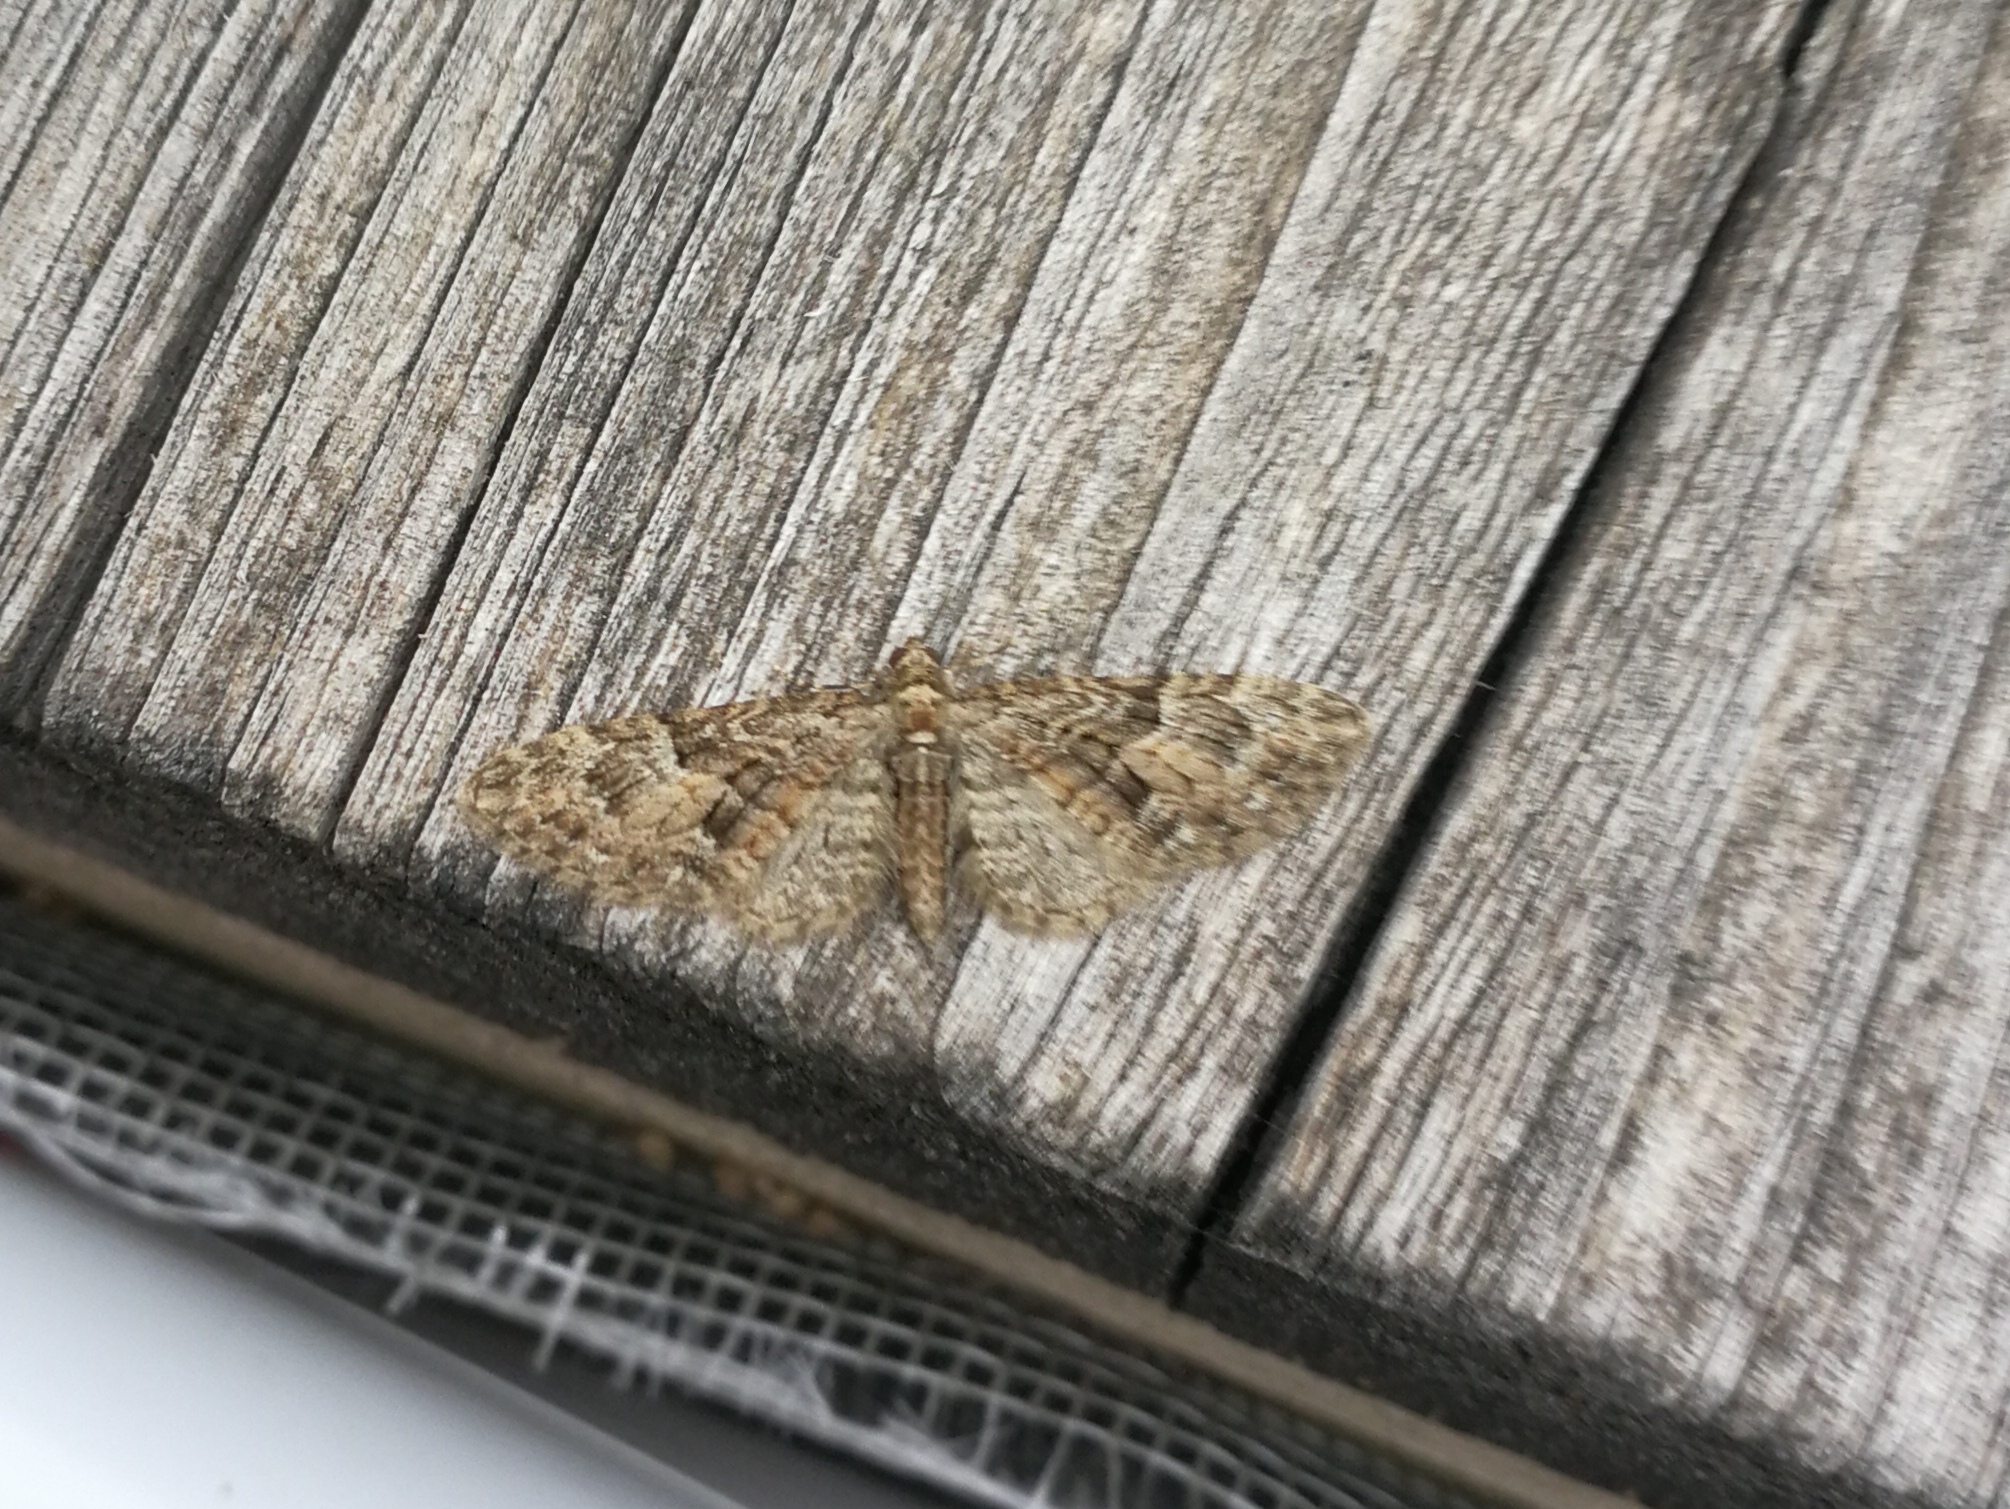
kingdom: Animalia
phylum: Arthropoda
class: Insecta
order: Lepidoptera
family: Geometridae
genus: Eupithecia
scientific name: Eupithecia cocciferata
